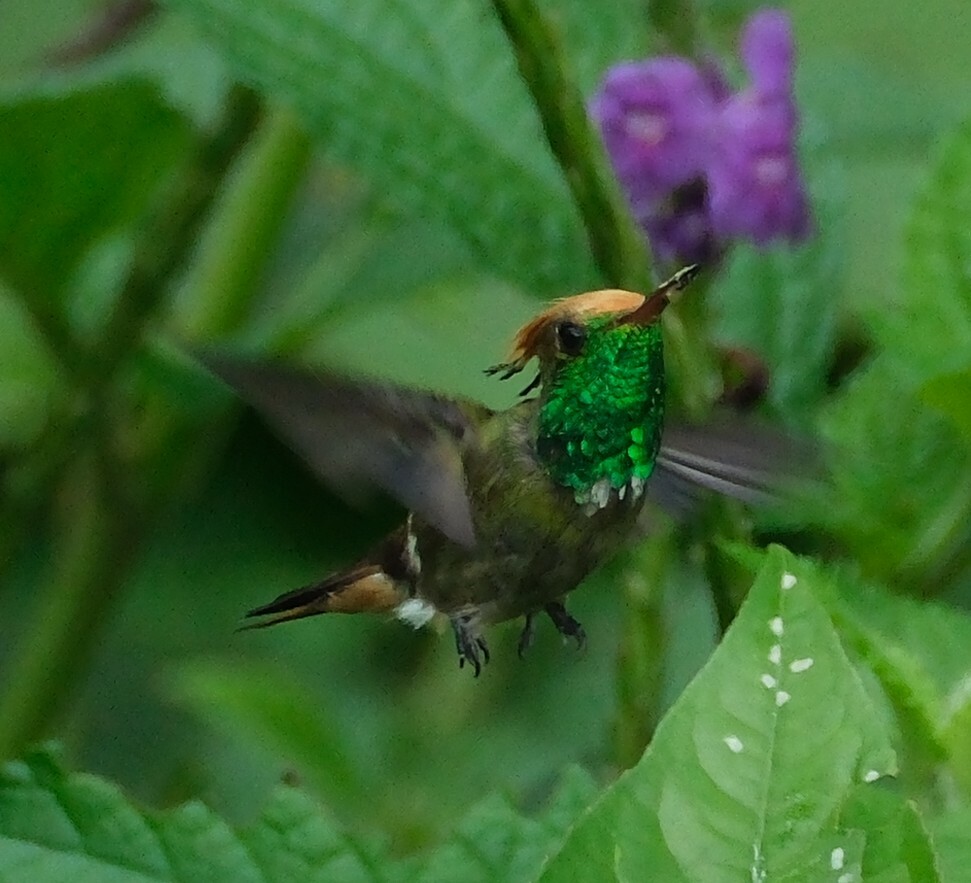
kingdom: Animalia
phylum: Chordata
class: Aves
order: Apodiformes
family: Trochilidae
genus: Lophornis
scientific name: Lophornis delattrei
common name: Rufous-crested coquette
